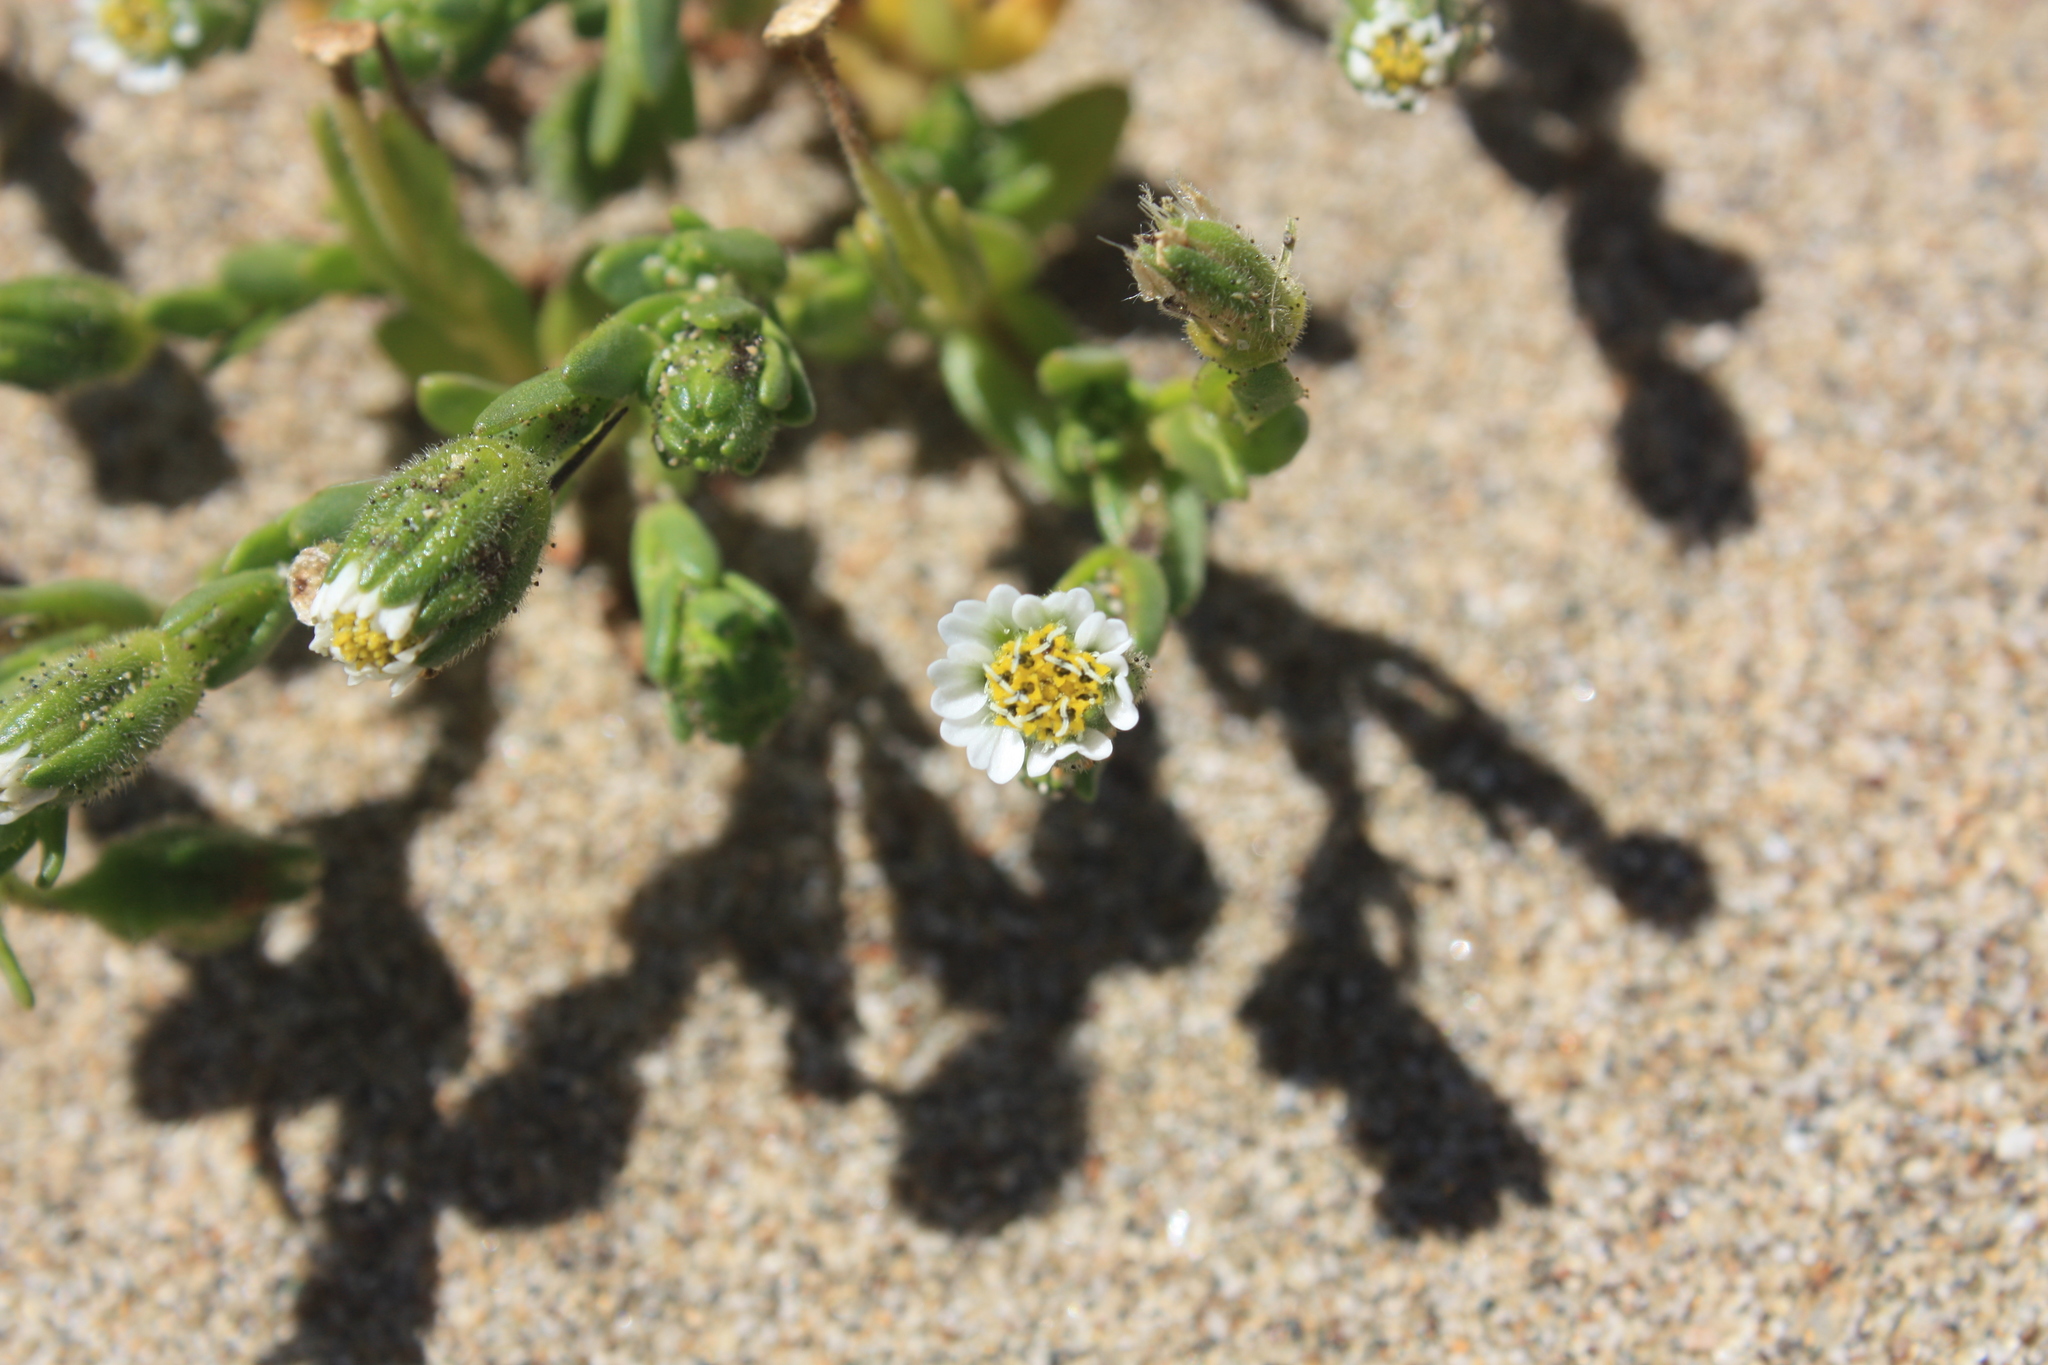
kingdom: Plantae
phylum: Tracheophyta
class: Magnoliopsida
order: Asterales
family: Asteraceae
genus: Layia
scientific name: Layia carnosa
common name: Beach layia
